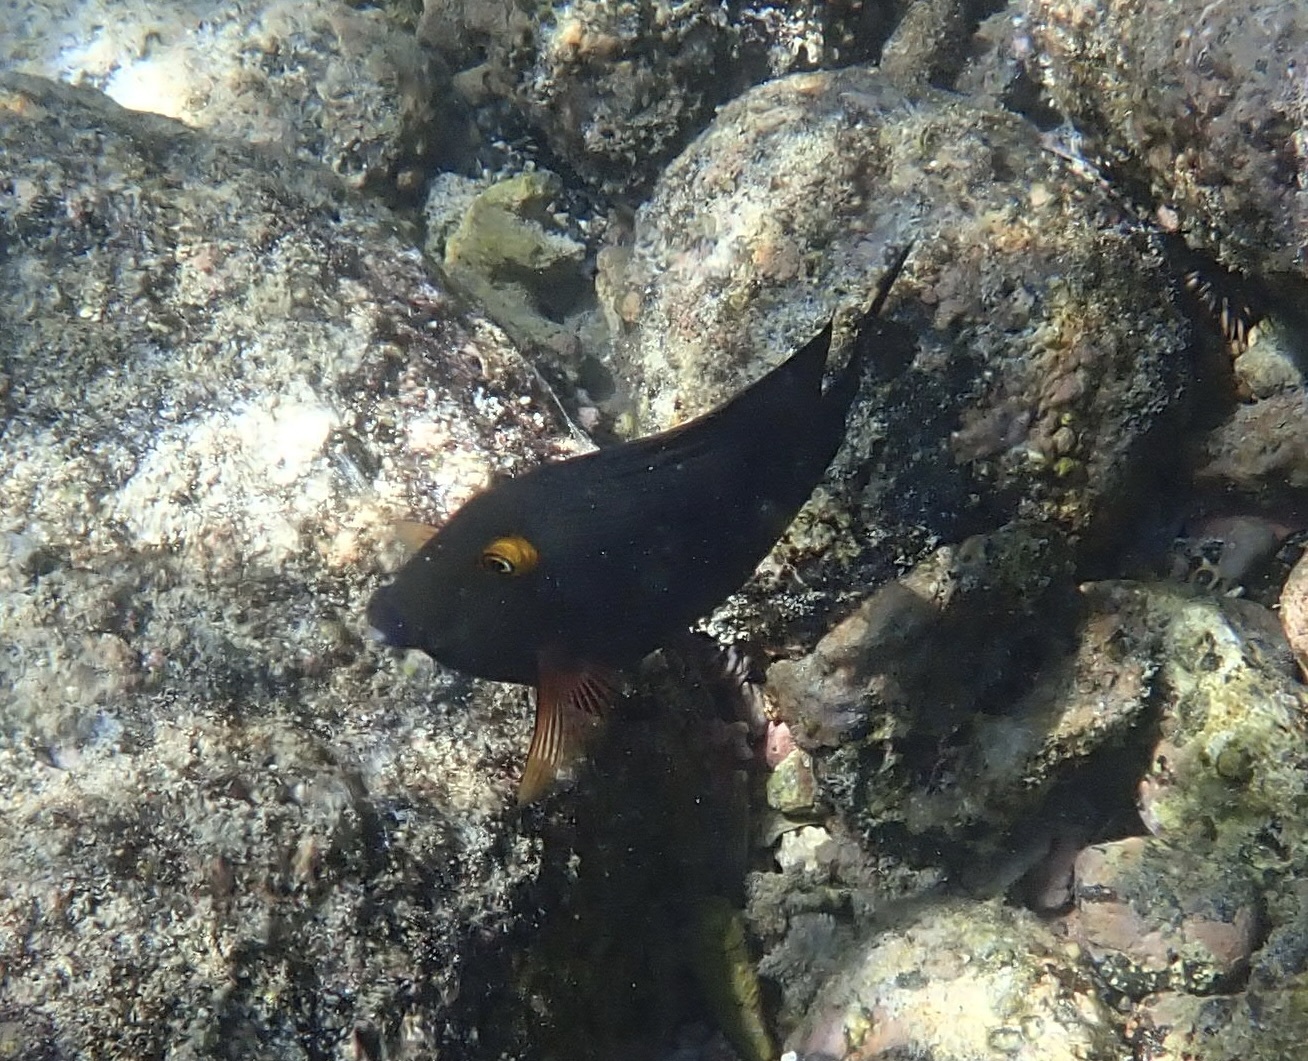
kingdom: Animalia
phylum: Chordata
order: Perciformes
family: Acanthuridae
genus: Ctenochaetus
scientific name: Ctenochaetus strigosus
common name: Bristletoothed surgeonfish
